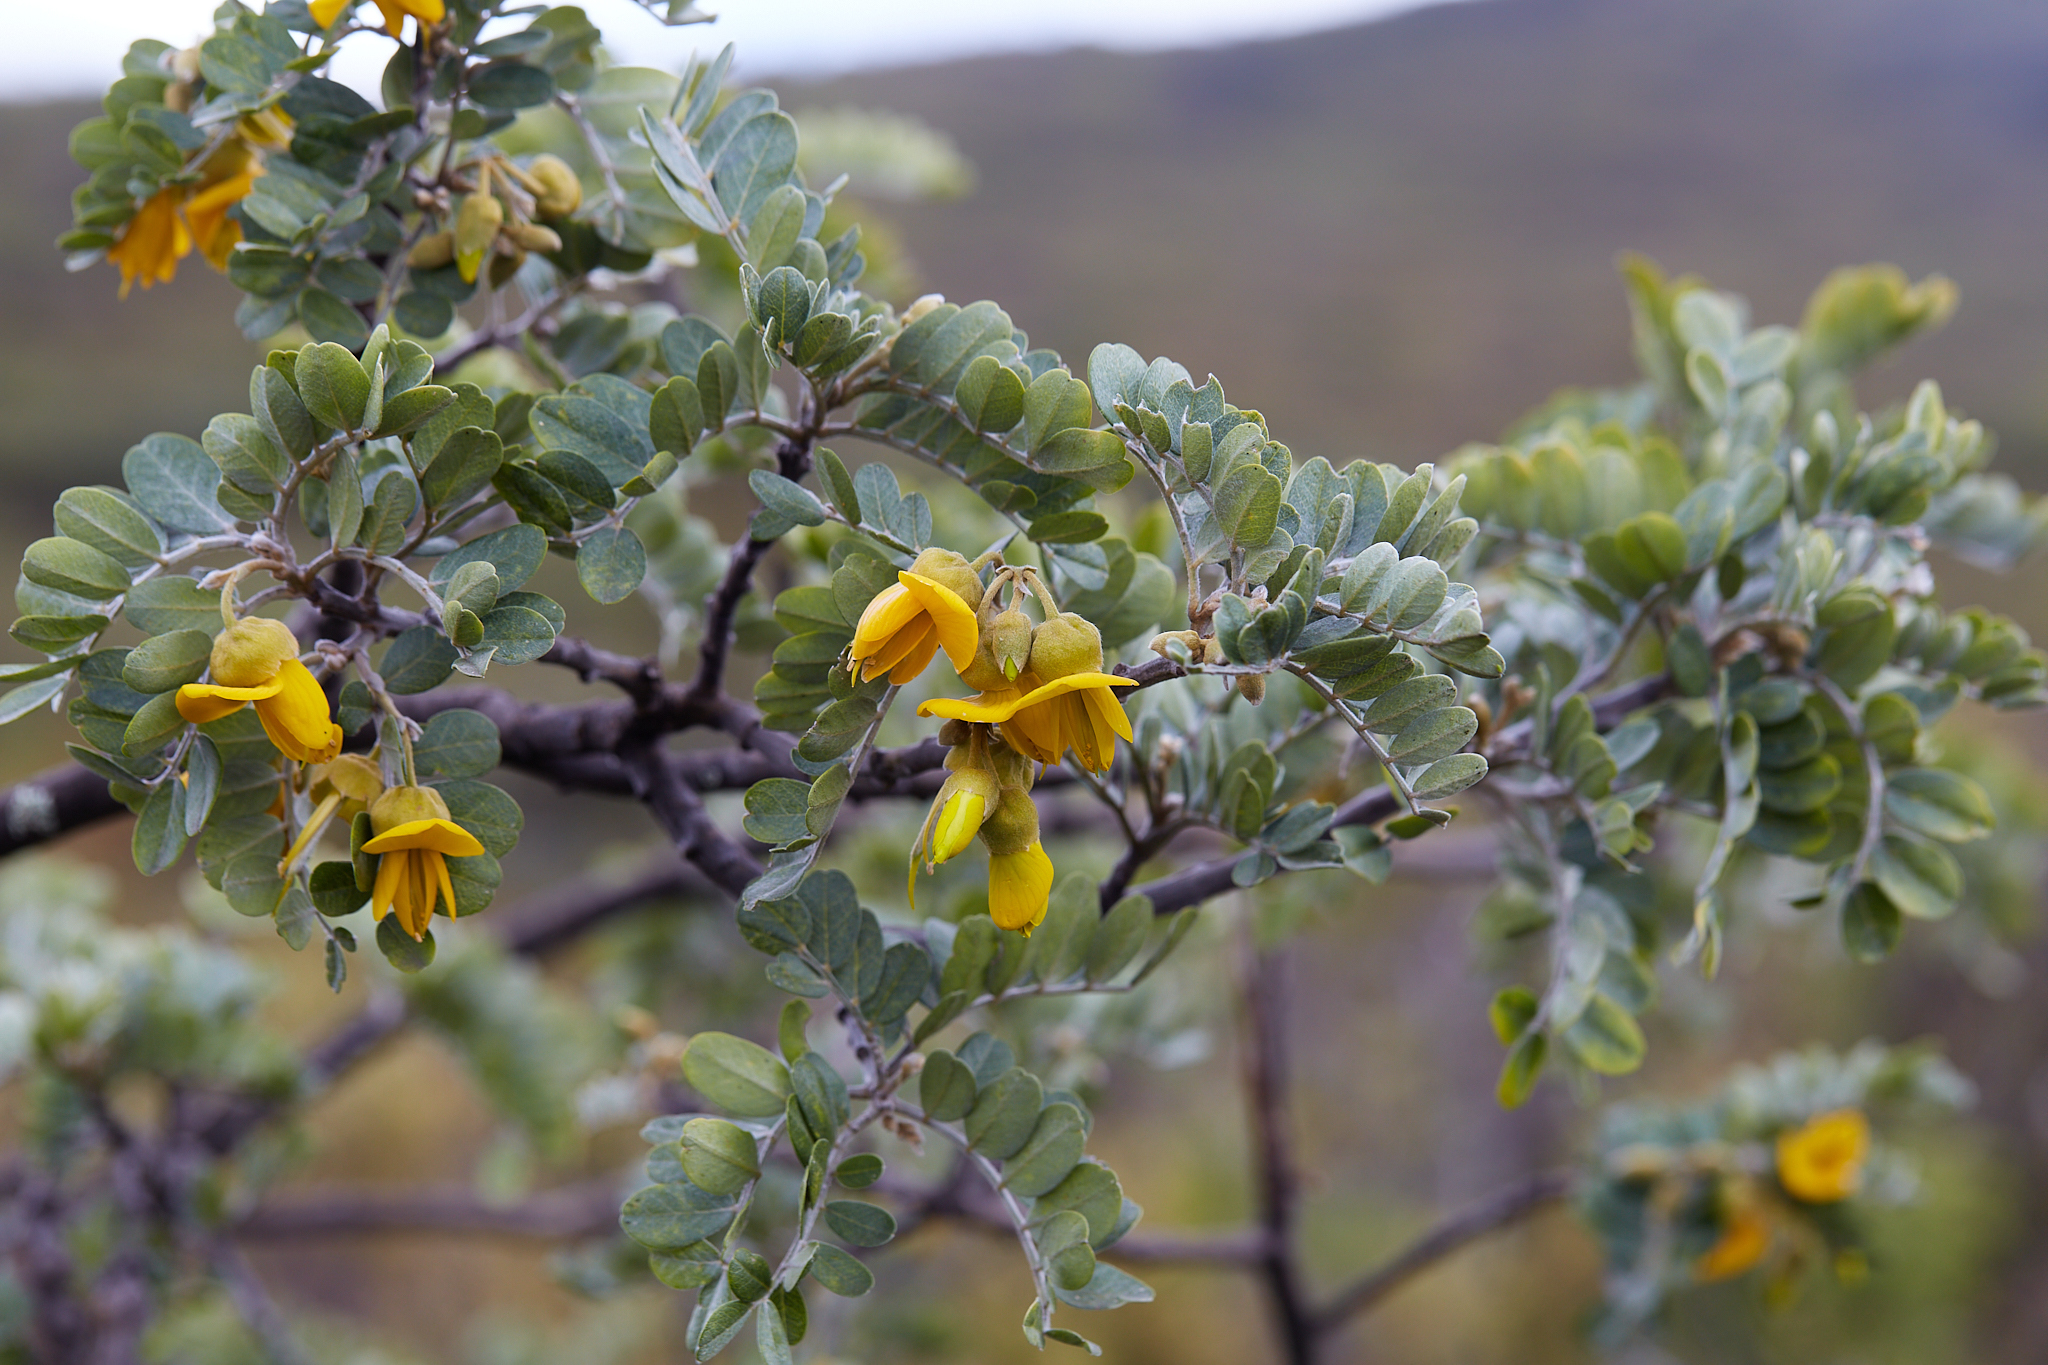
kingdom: Plantae
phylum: Tracheophyta
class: Magnoliopsida
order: Fabales
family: Fabaceae
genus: Sophora
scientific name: Sophora chrysophylla
